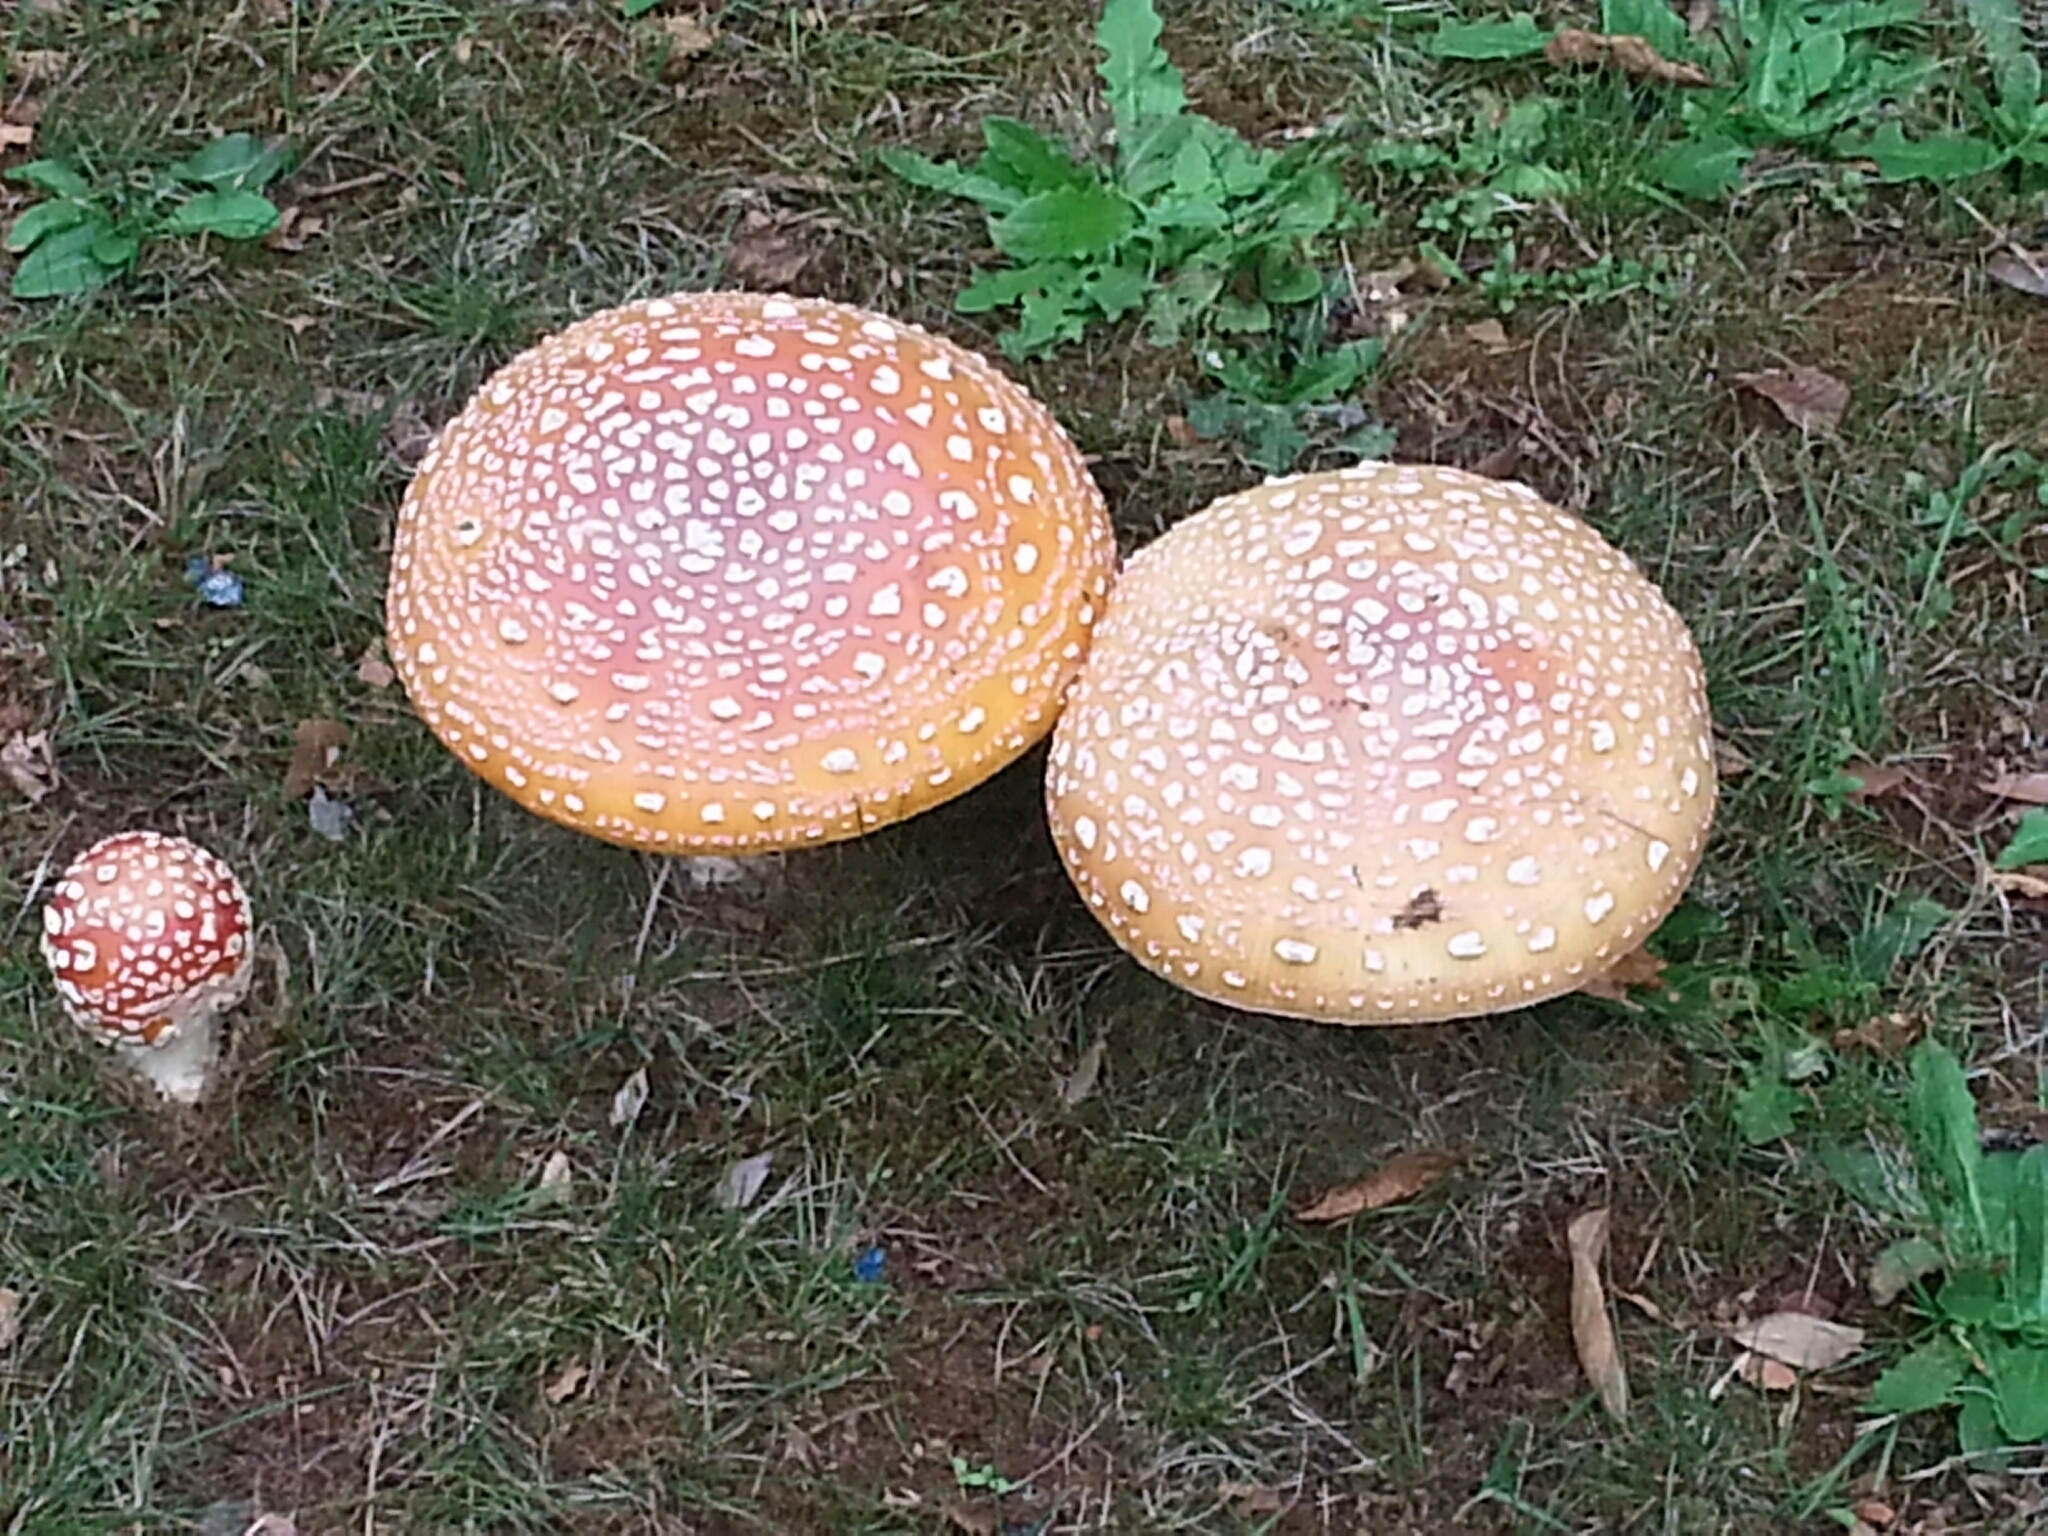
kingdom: Fungi
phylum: Basidiomycota
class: Agaricomycetes
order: Agaricales
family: Amanitaceae
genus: Amanita
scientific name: Amanita muscaria
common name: Fly agaric
